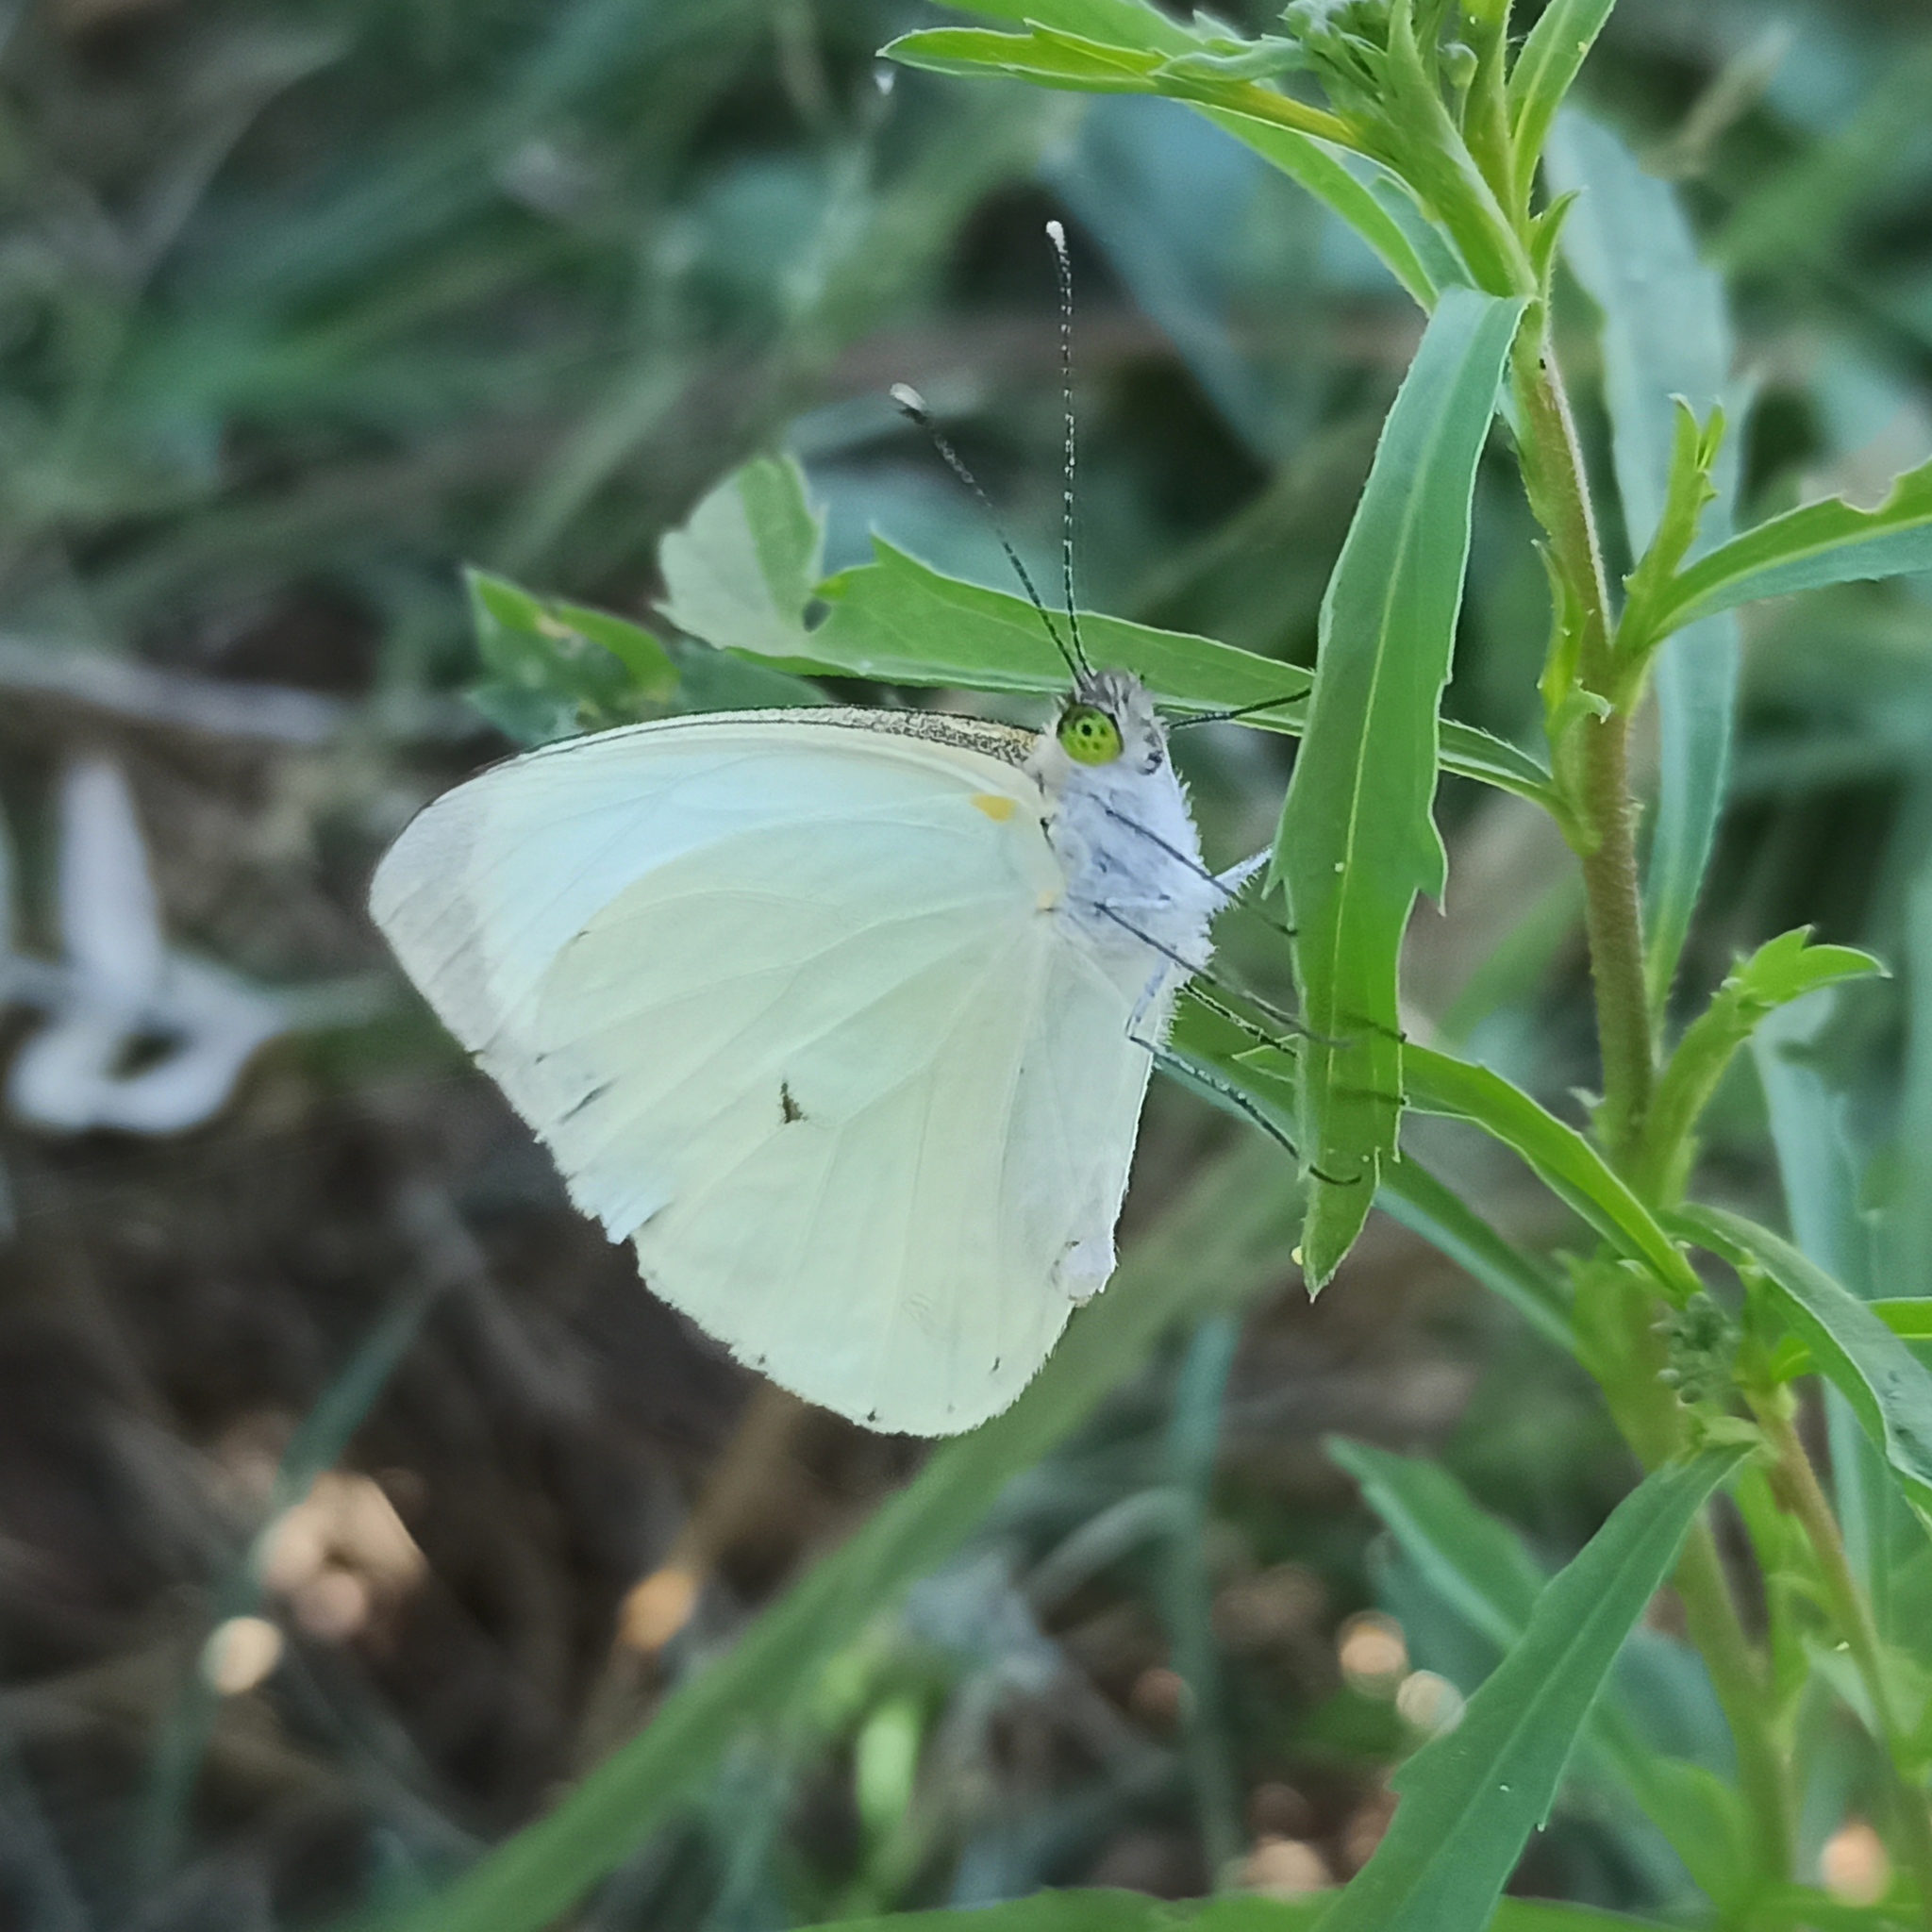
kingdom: Animalia
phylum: Arthropoda
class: Insecta
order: Lepidoptera
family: Pieridae
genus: Leptophobia
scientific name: Leptophobia aripa
